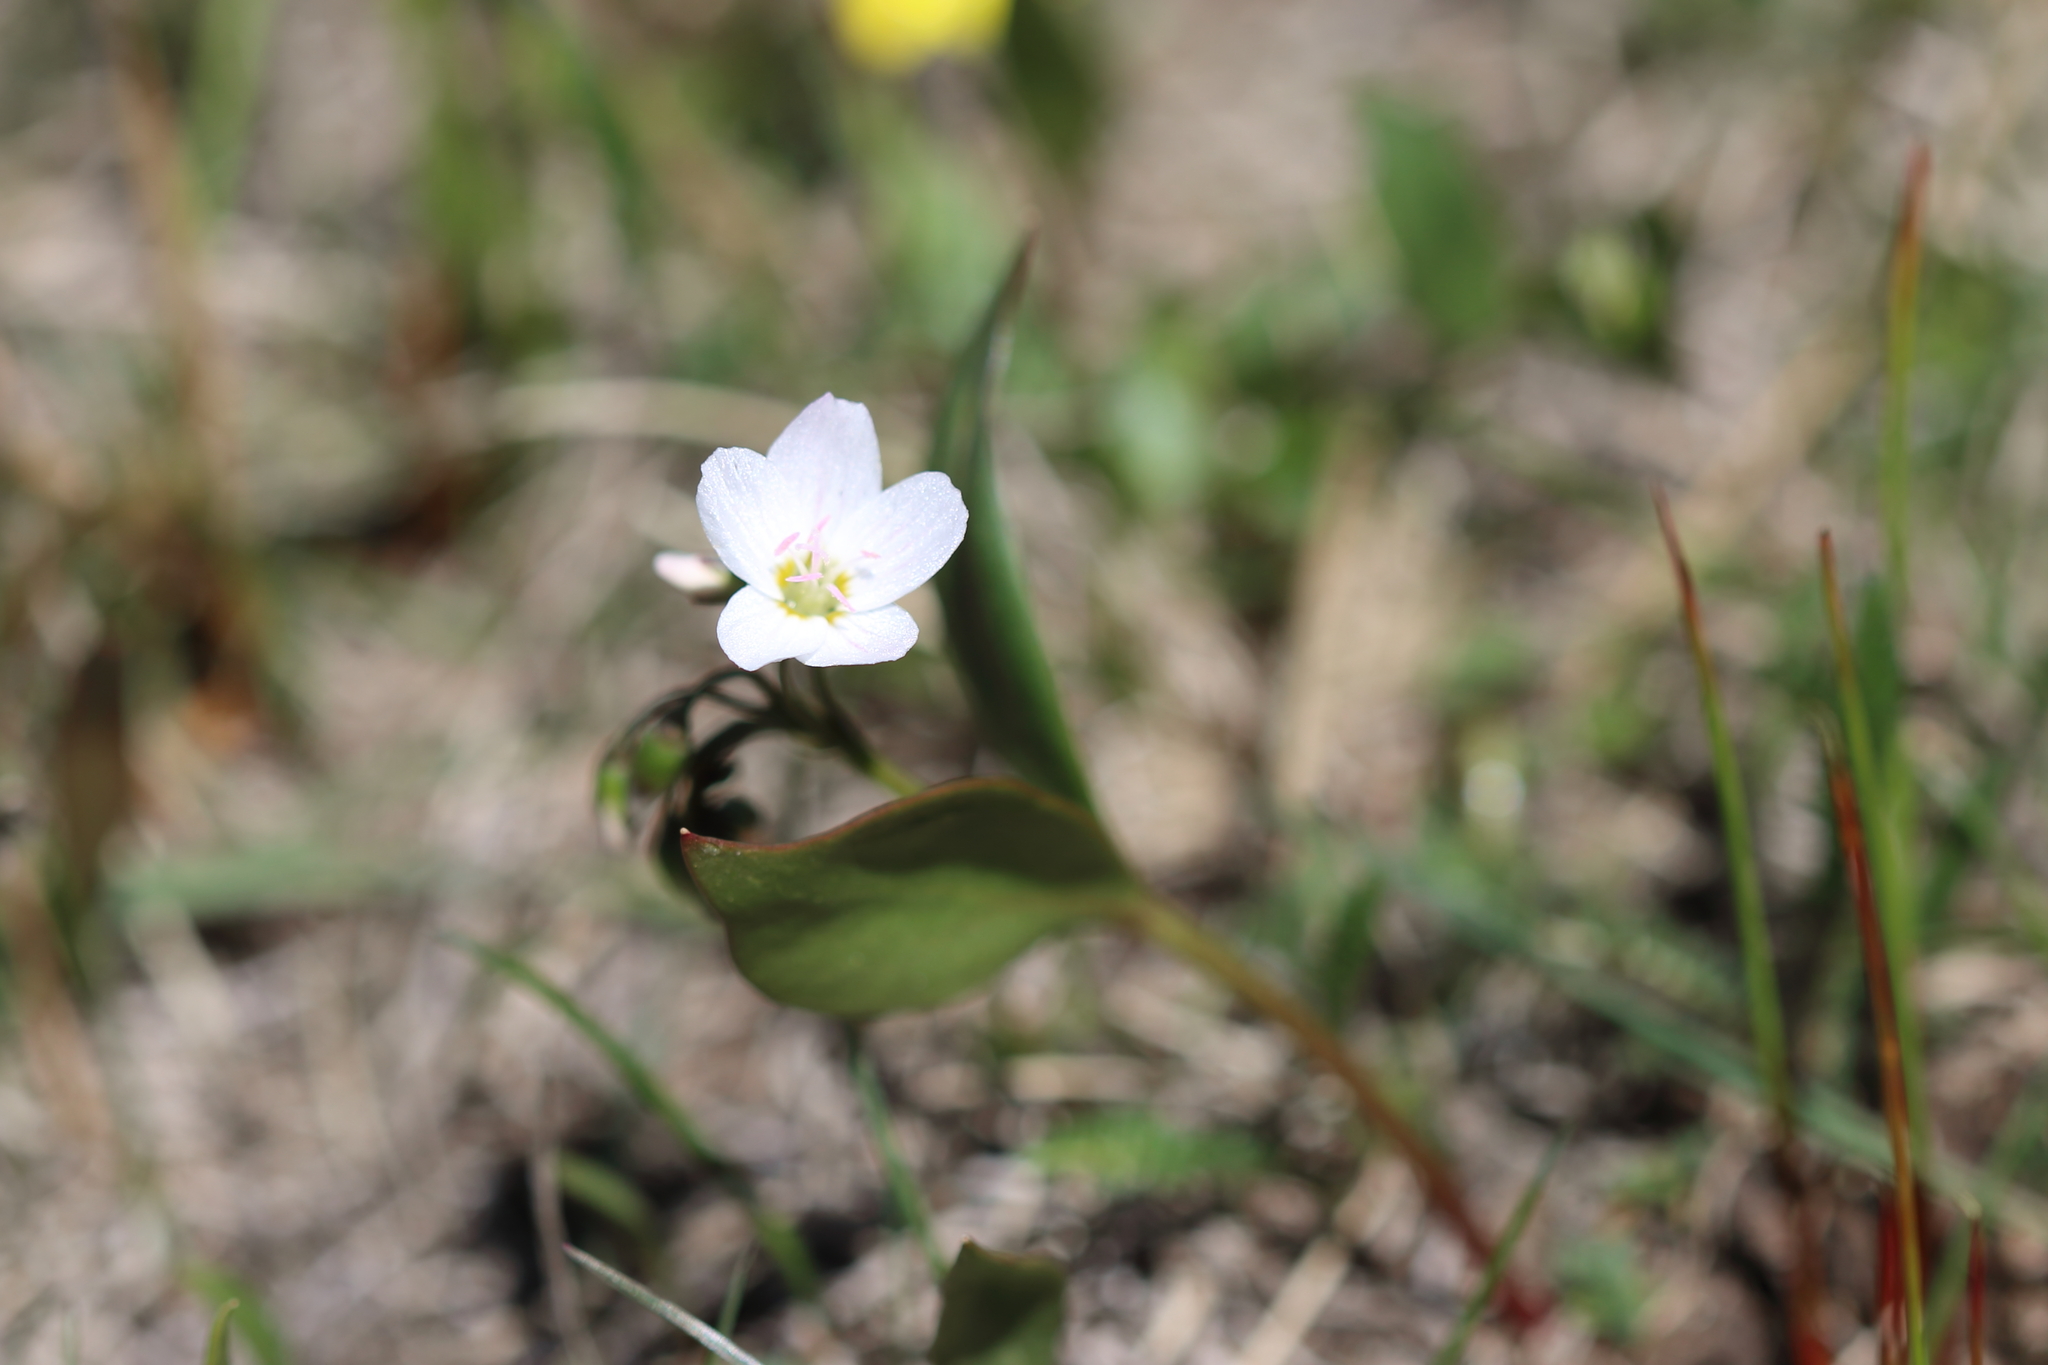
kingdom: Plantae
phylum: Tracheophyta
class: Magnoliopsida
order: Caryophyllales
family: Montiaceae
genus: Claytonia
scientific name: Claytonia lanceolata
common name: Western spring-beauty
